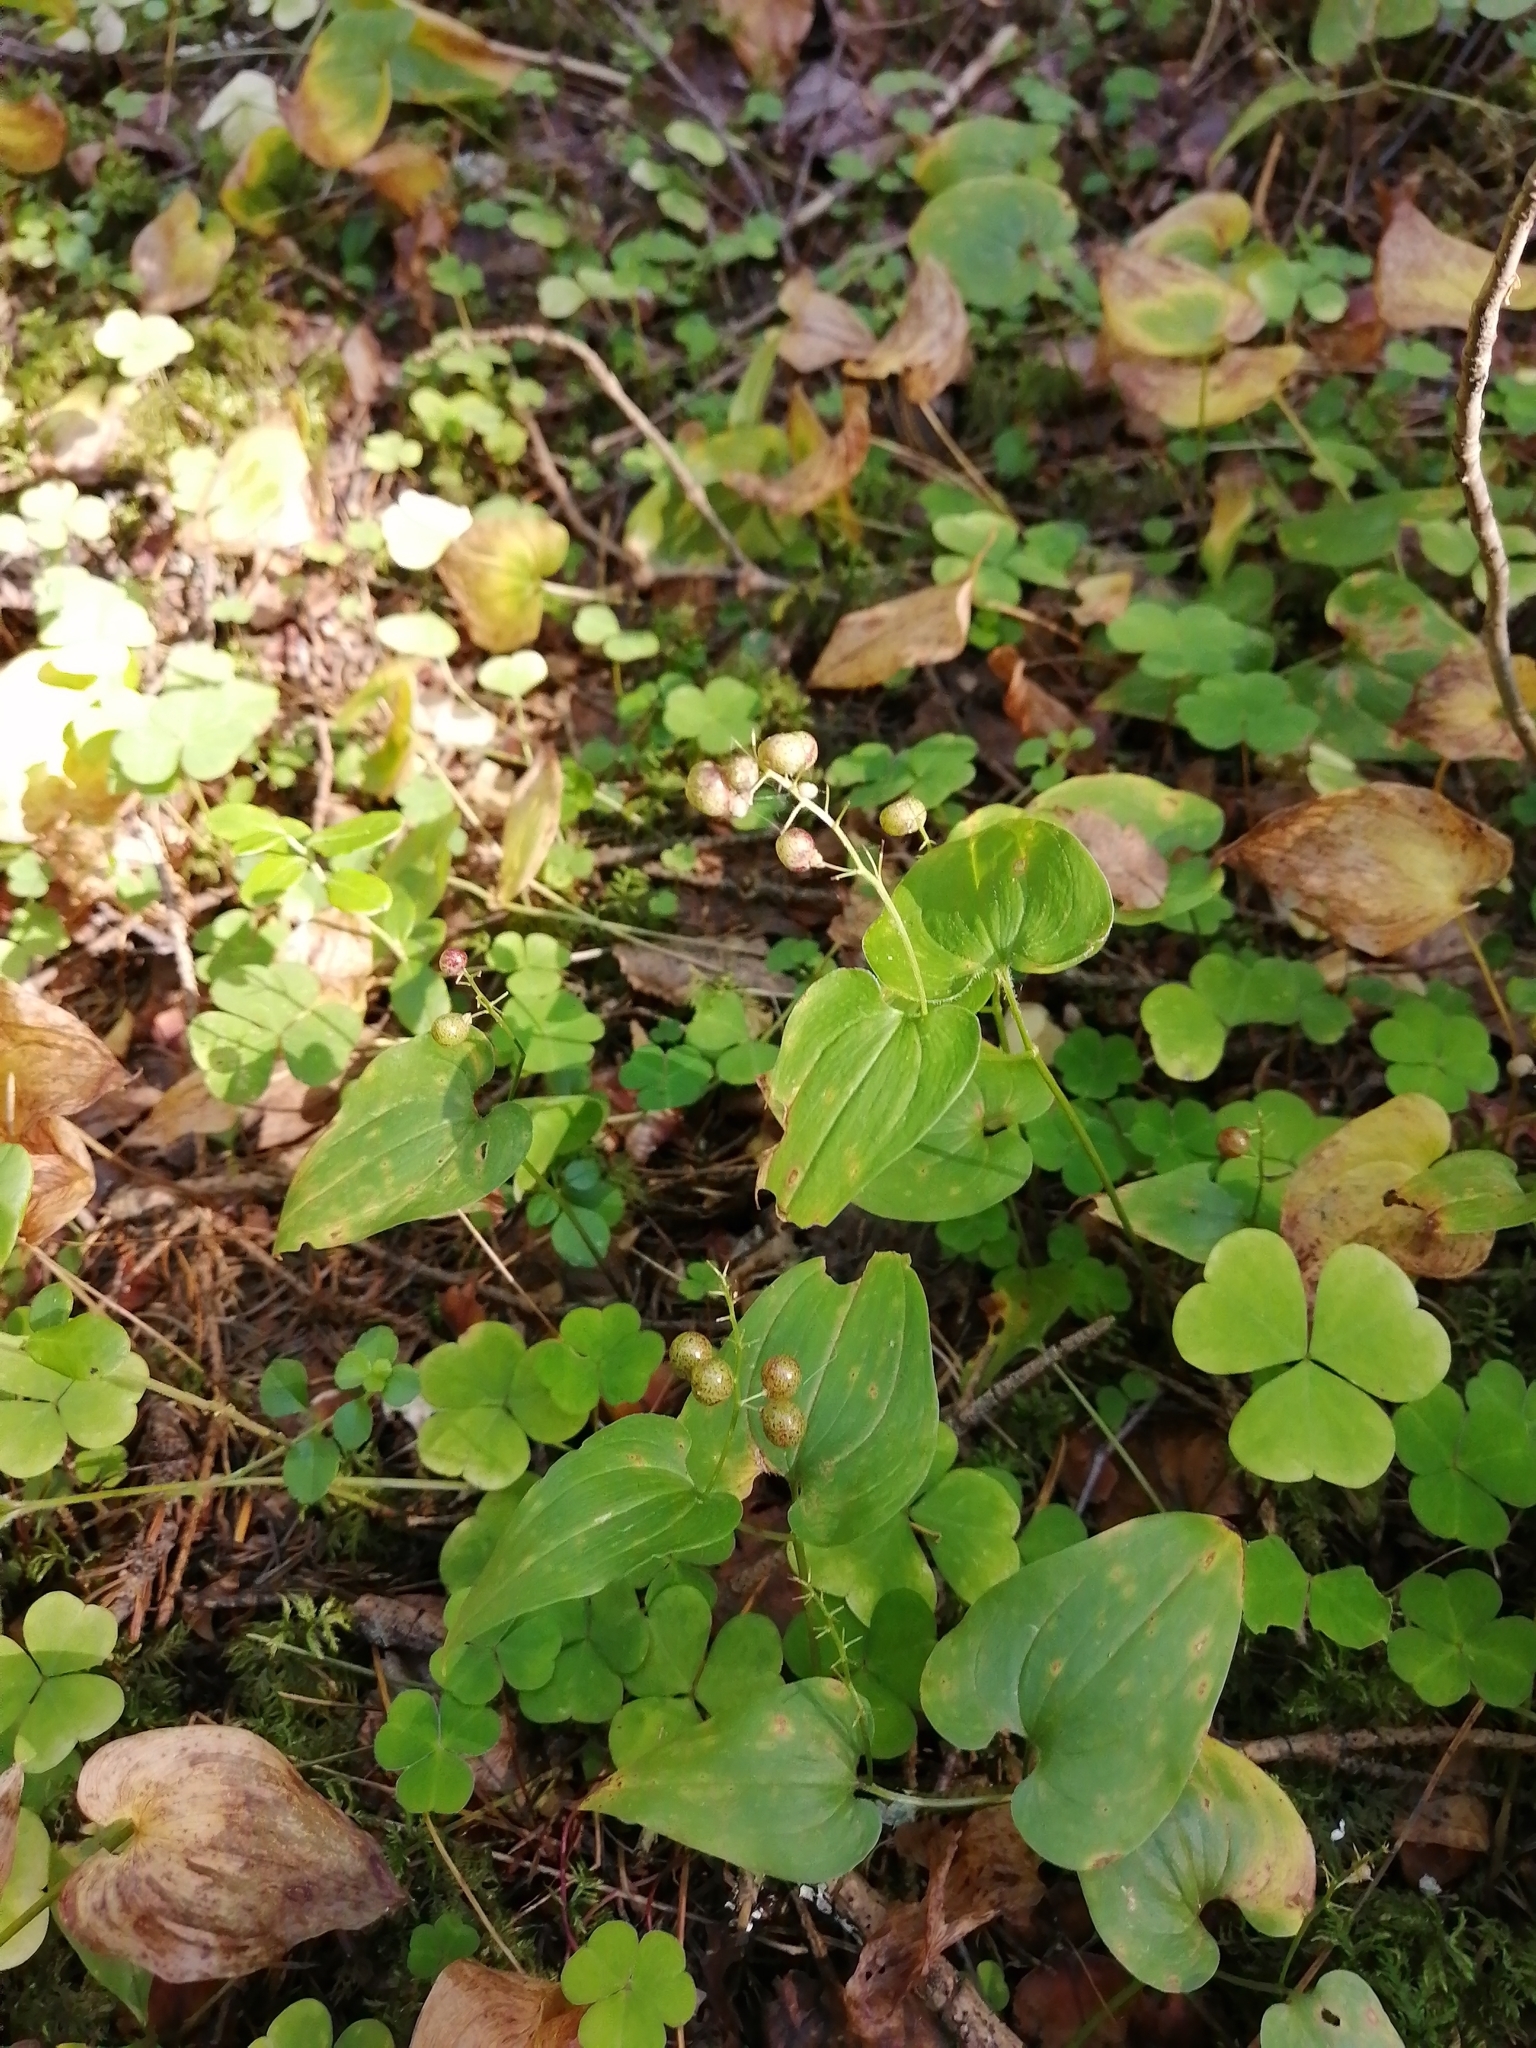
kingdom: Plantae
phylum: Tracheophyta
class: Liliopsida
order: Asparagales
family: Asparagaceae
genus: Maianthemum
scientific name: Maianthemum bifolium
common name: May lily
